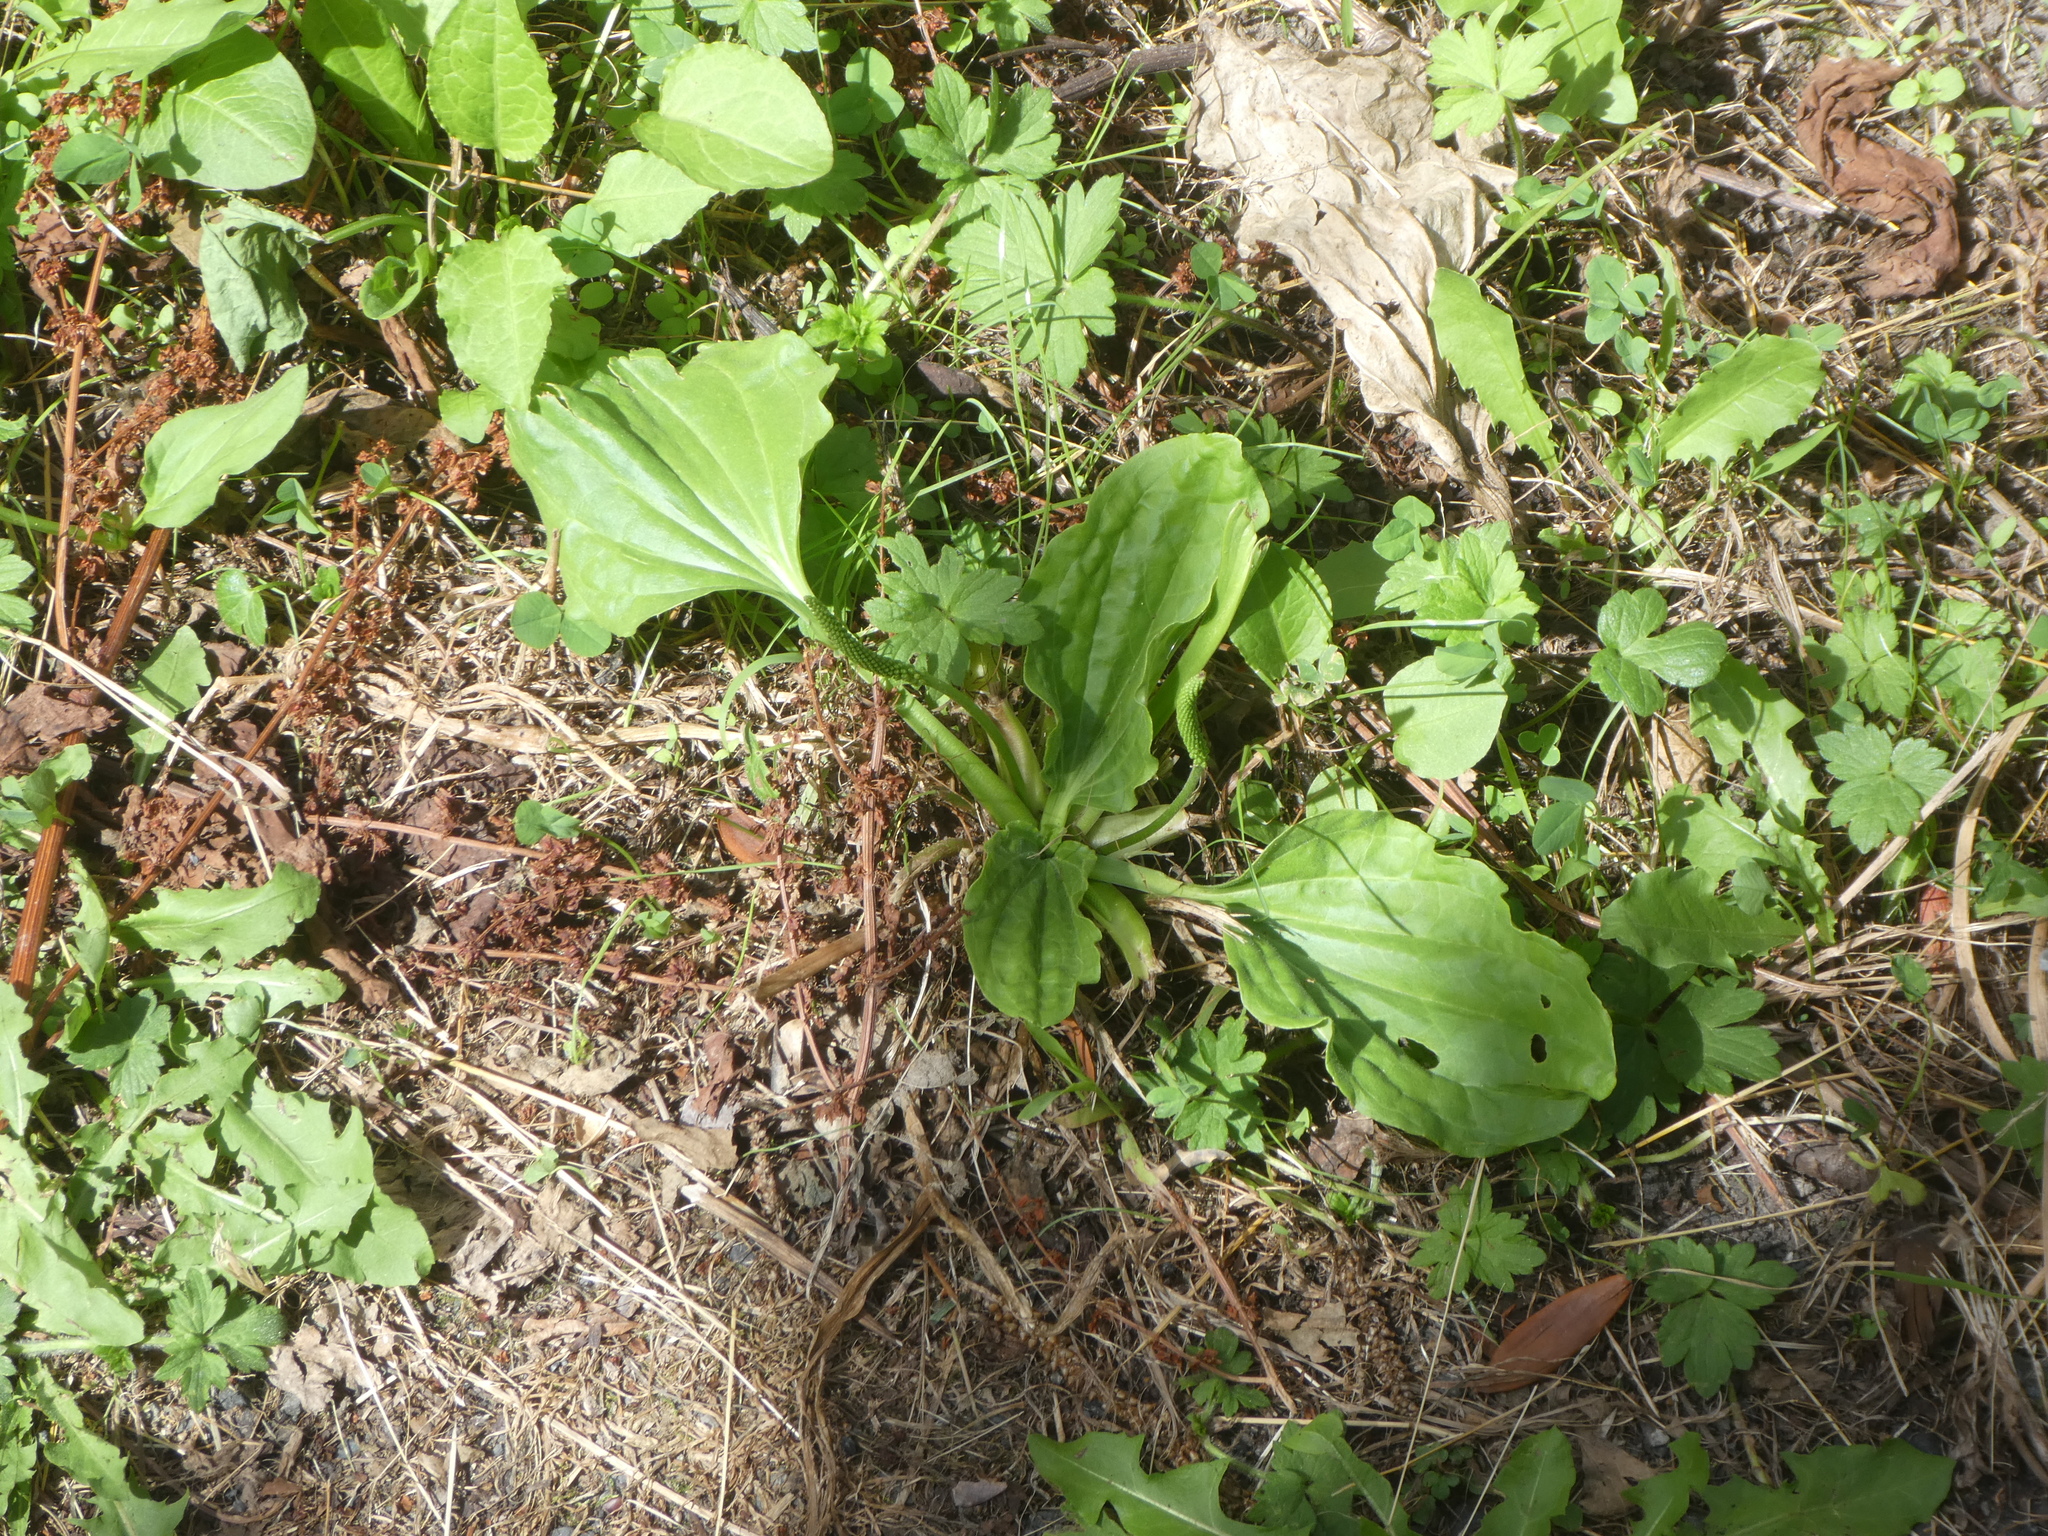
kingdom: Plantae
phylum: Tracheophyta
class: Magnoliopsida
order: Lamiales
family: Plantaginaceae
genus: Plantago
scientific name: Plantago major
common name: Common plantain
